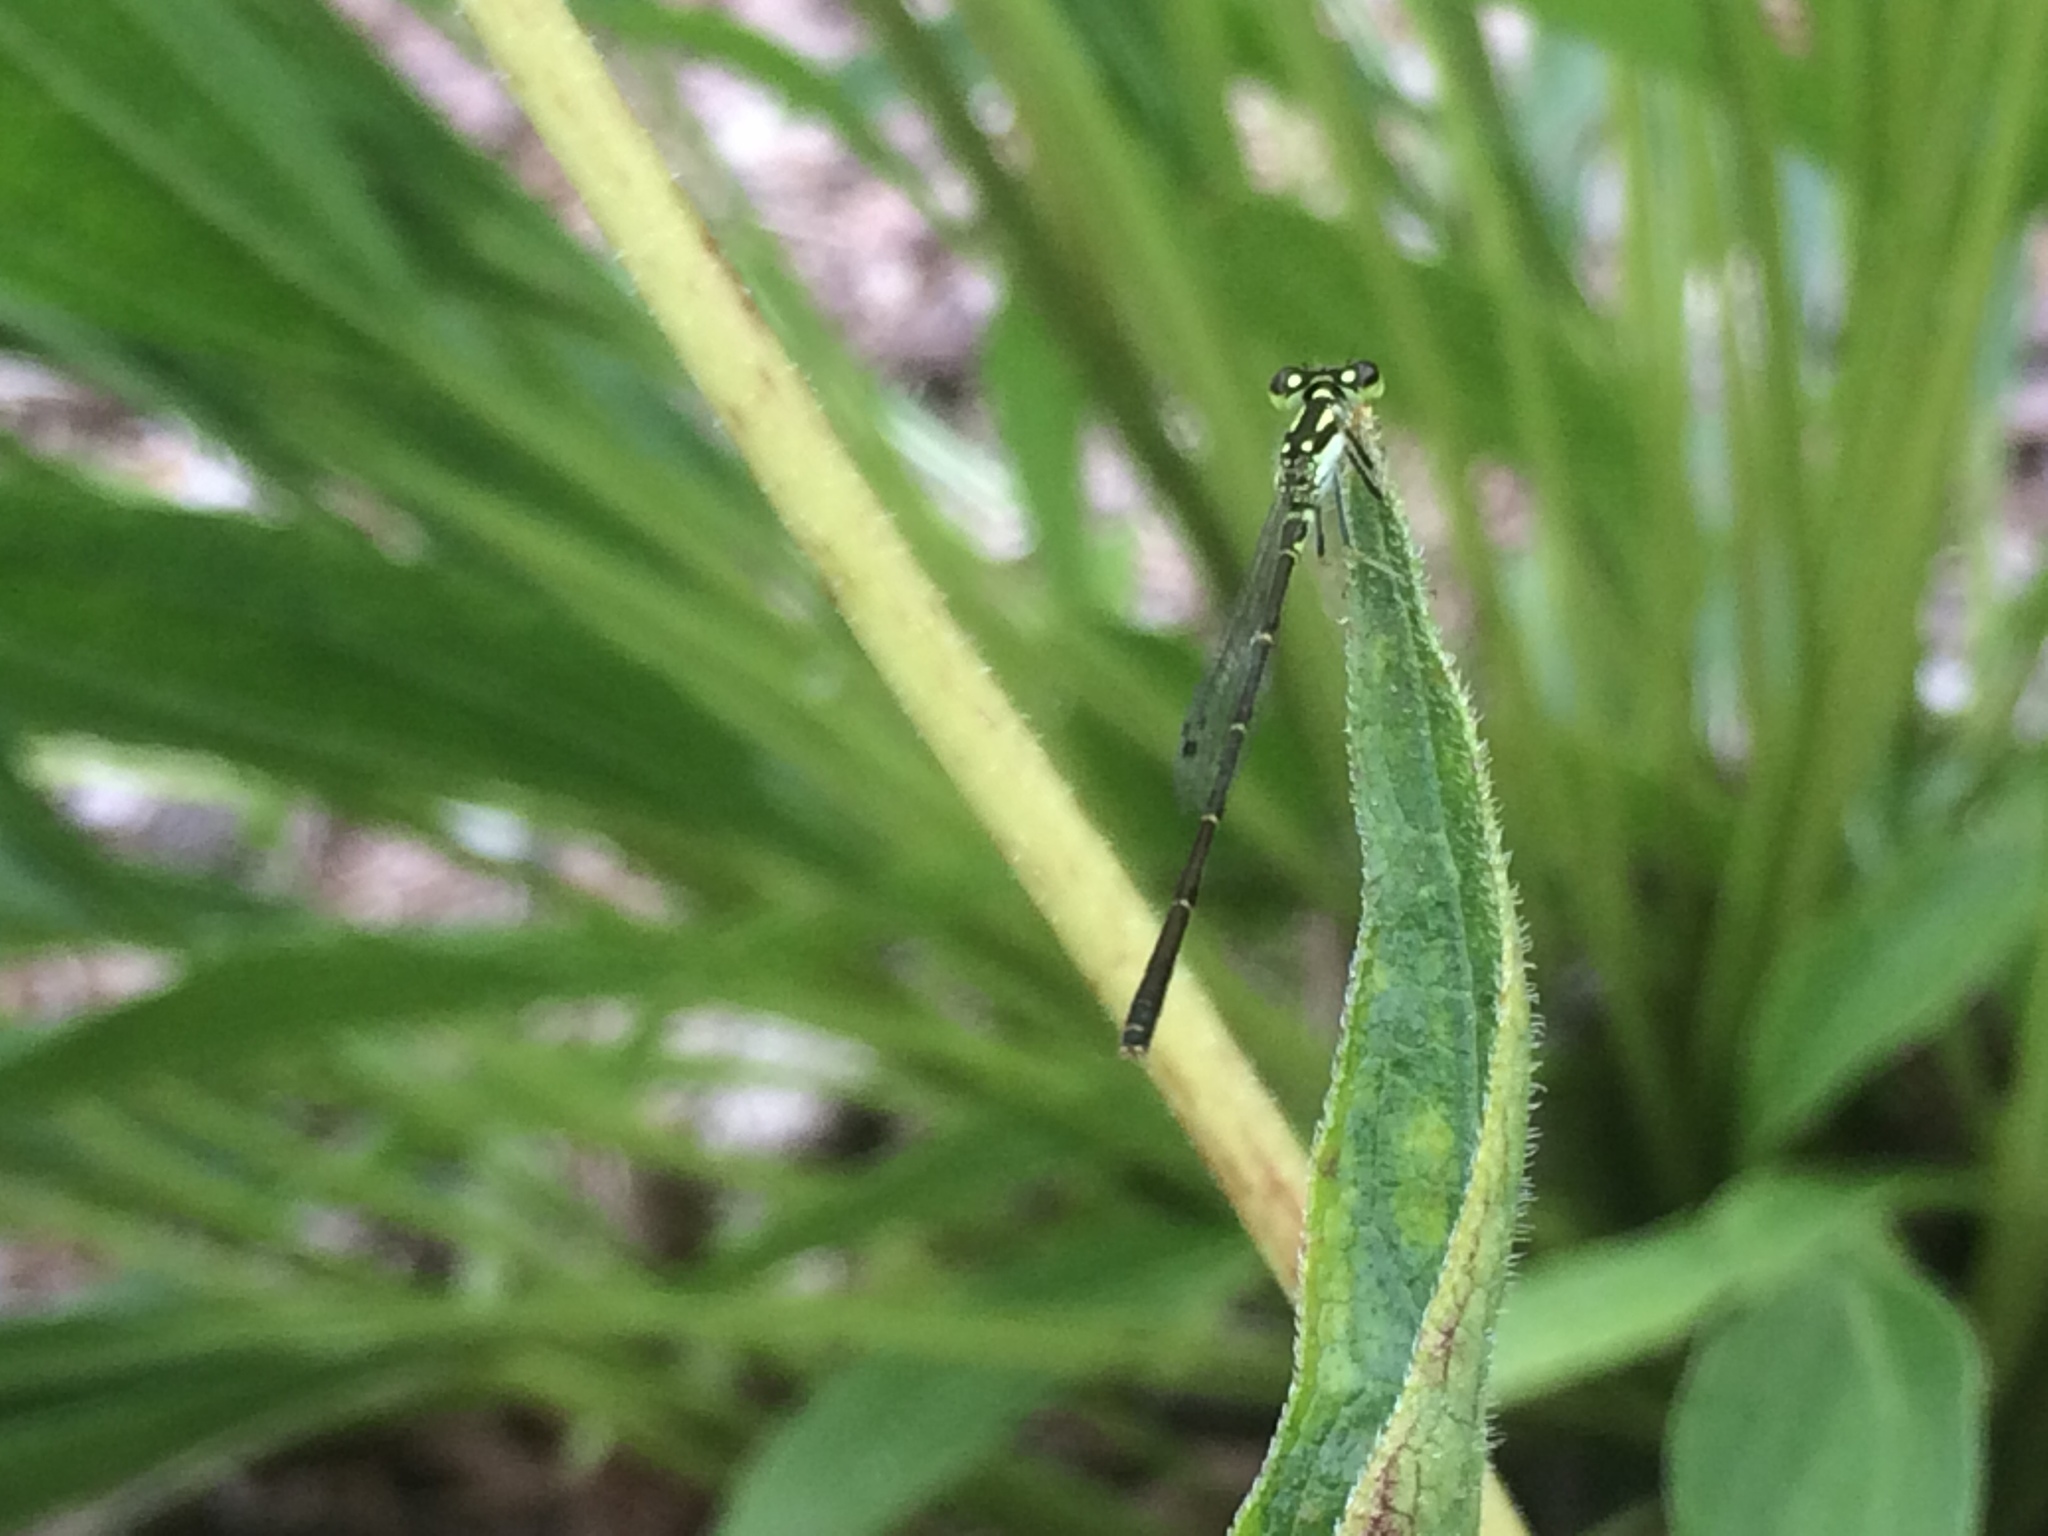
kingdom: Animalia
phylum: Arthropoda
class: Insecta
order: Odonata
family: Coenagrionidae
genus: Ischnura
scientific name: Ischnura posita
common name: Fragile forktail
